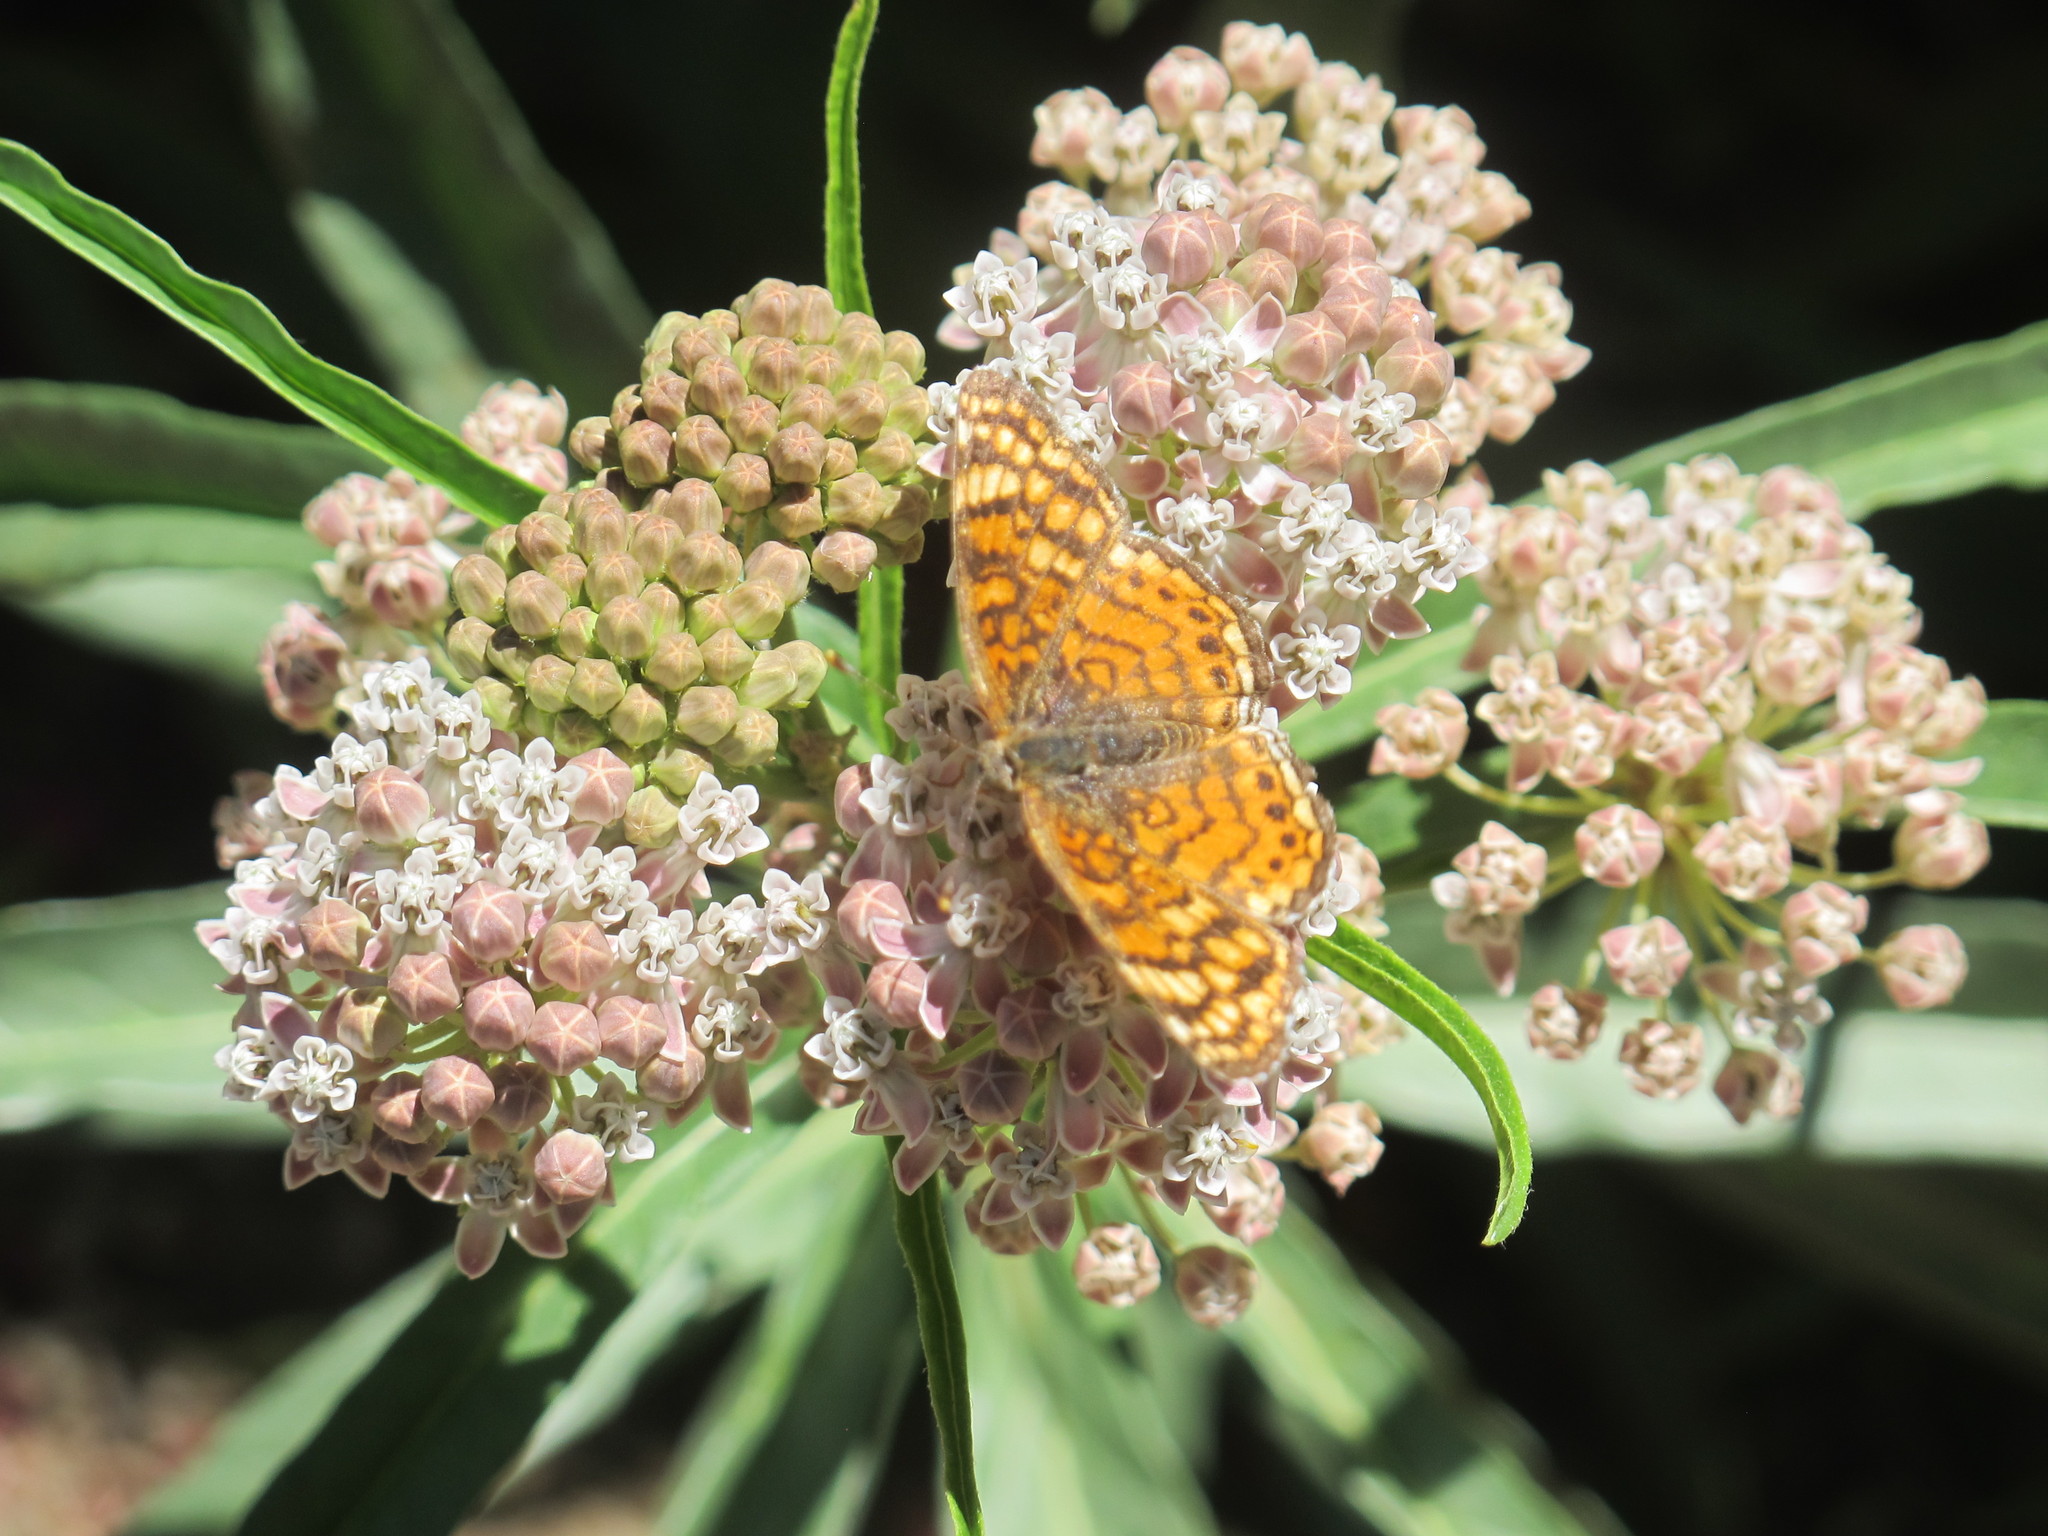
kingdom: Animalia
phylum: Arthropoda
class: Insecta
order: Lepidoptera
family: Nymphalidae
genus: Eresia
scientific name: Eresia aveyrona
